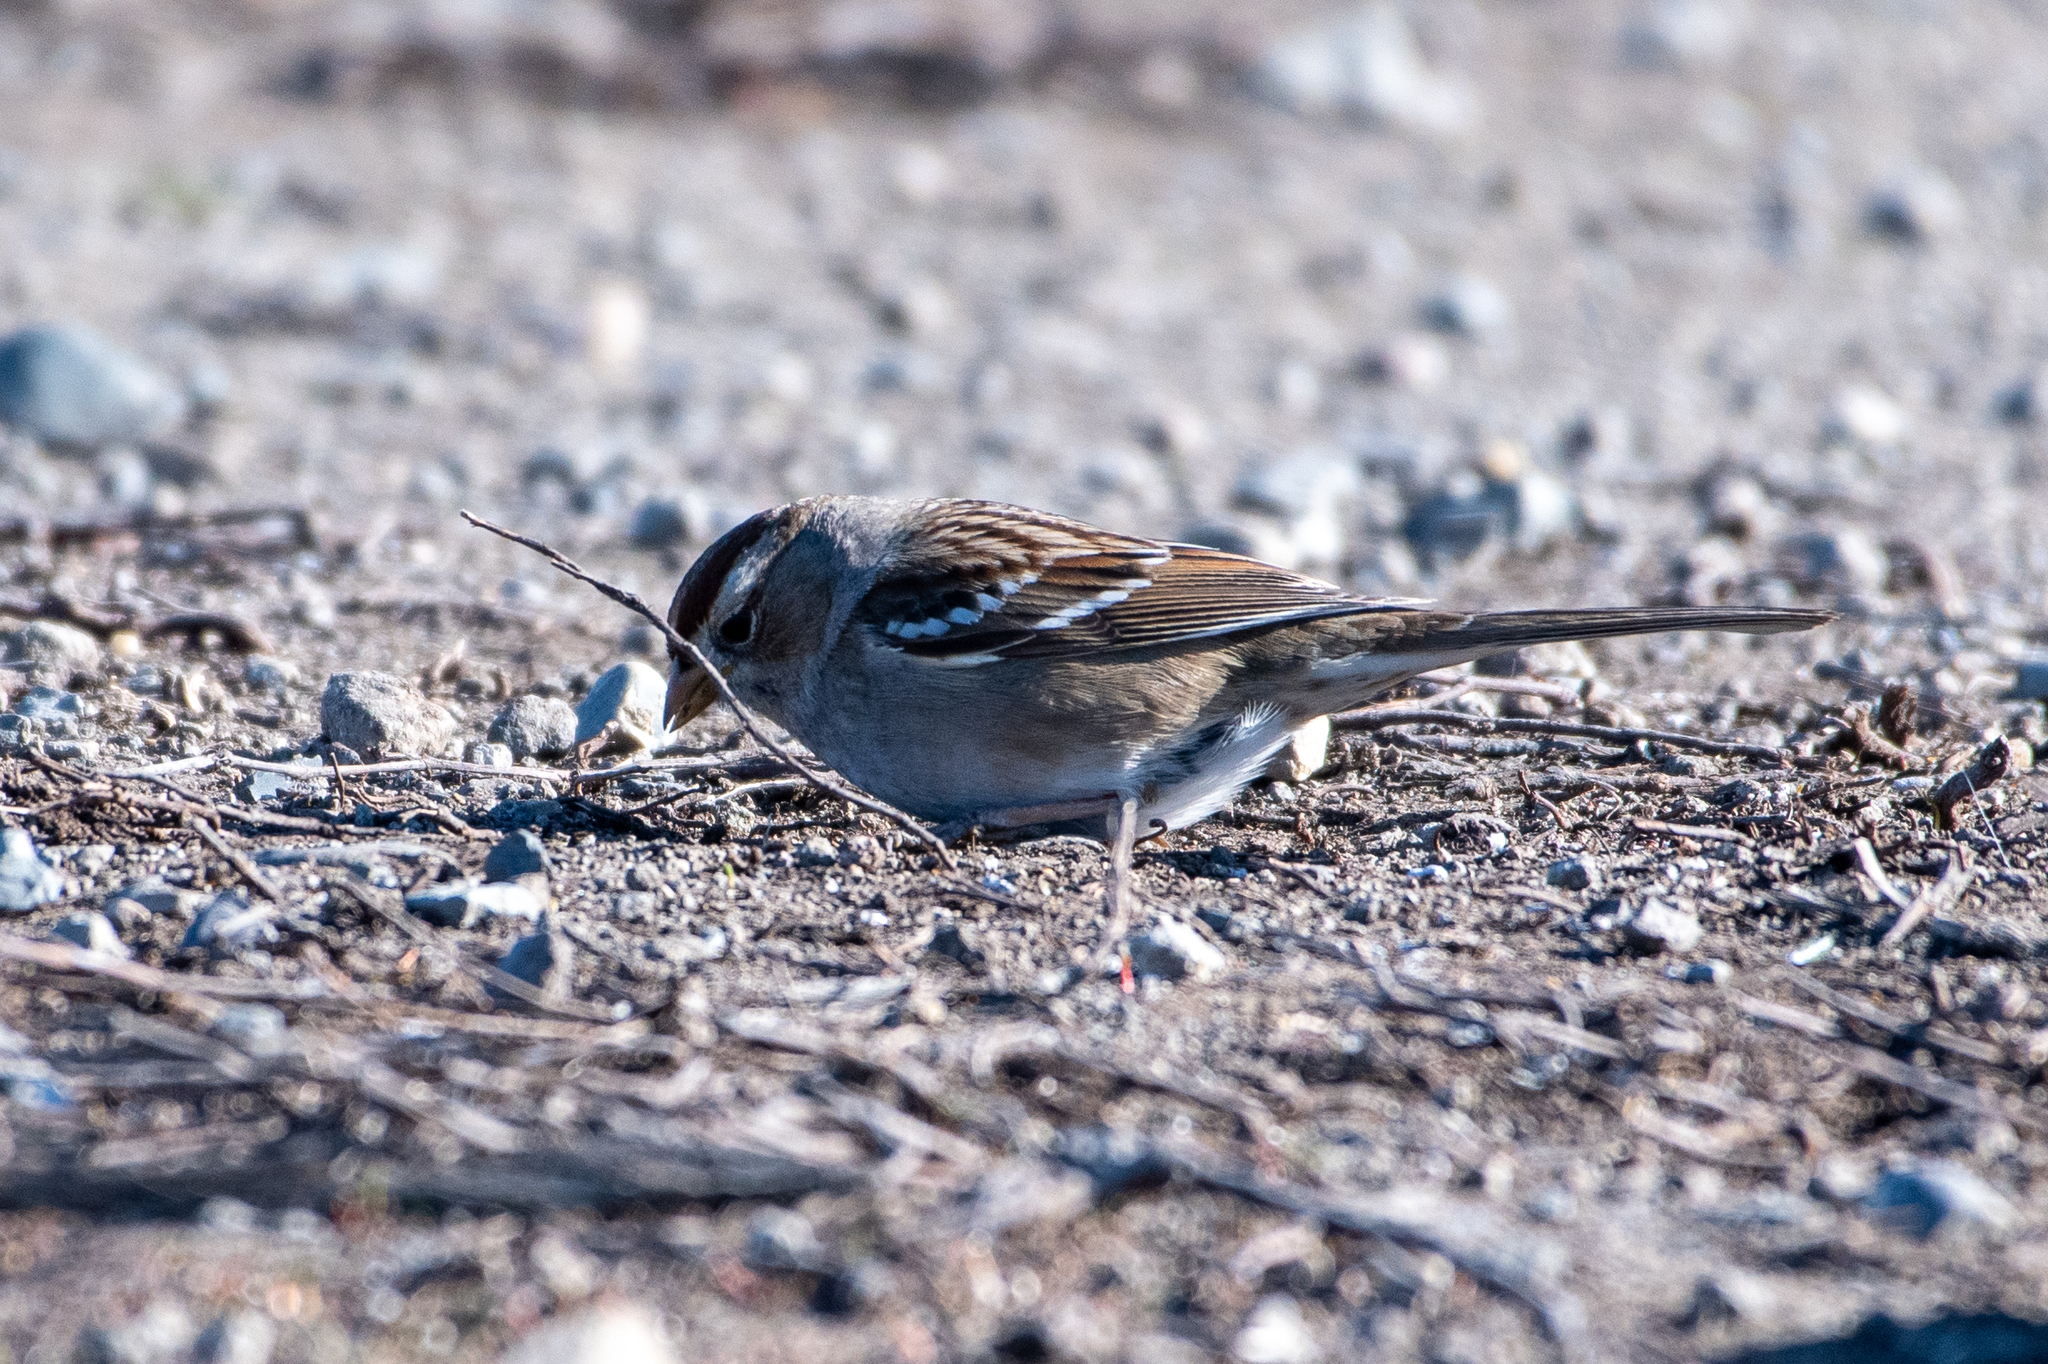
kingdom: Animalia
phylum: Chordata
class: Aves
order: Passeriformes
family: Passerellidae
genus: Zonotrichia
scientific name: Zonotrichia leucophrys
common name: White-crowned sparrow
